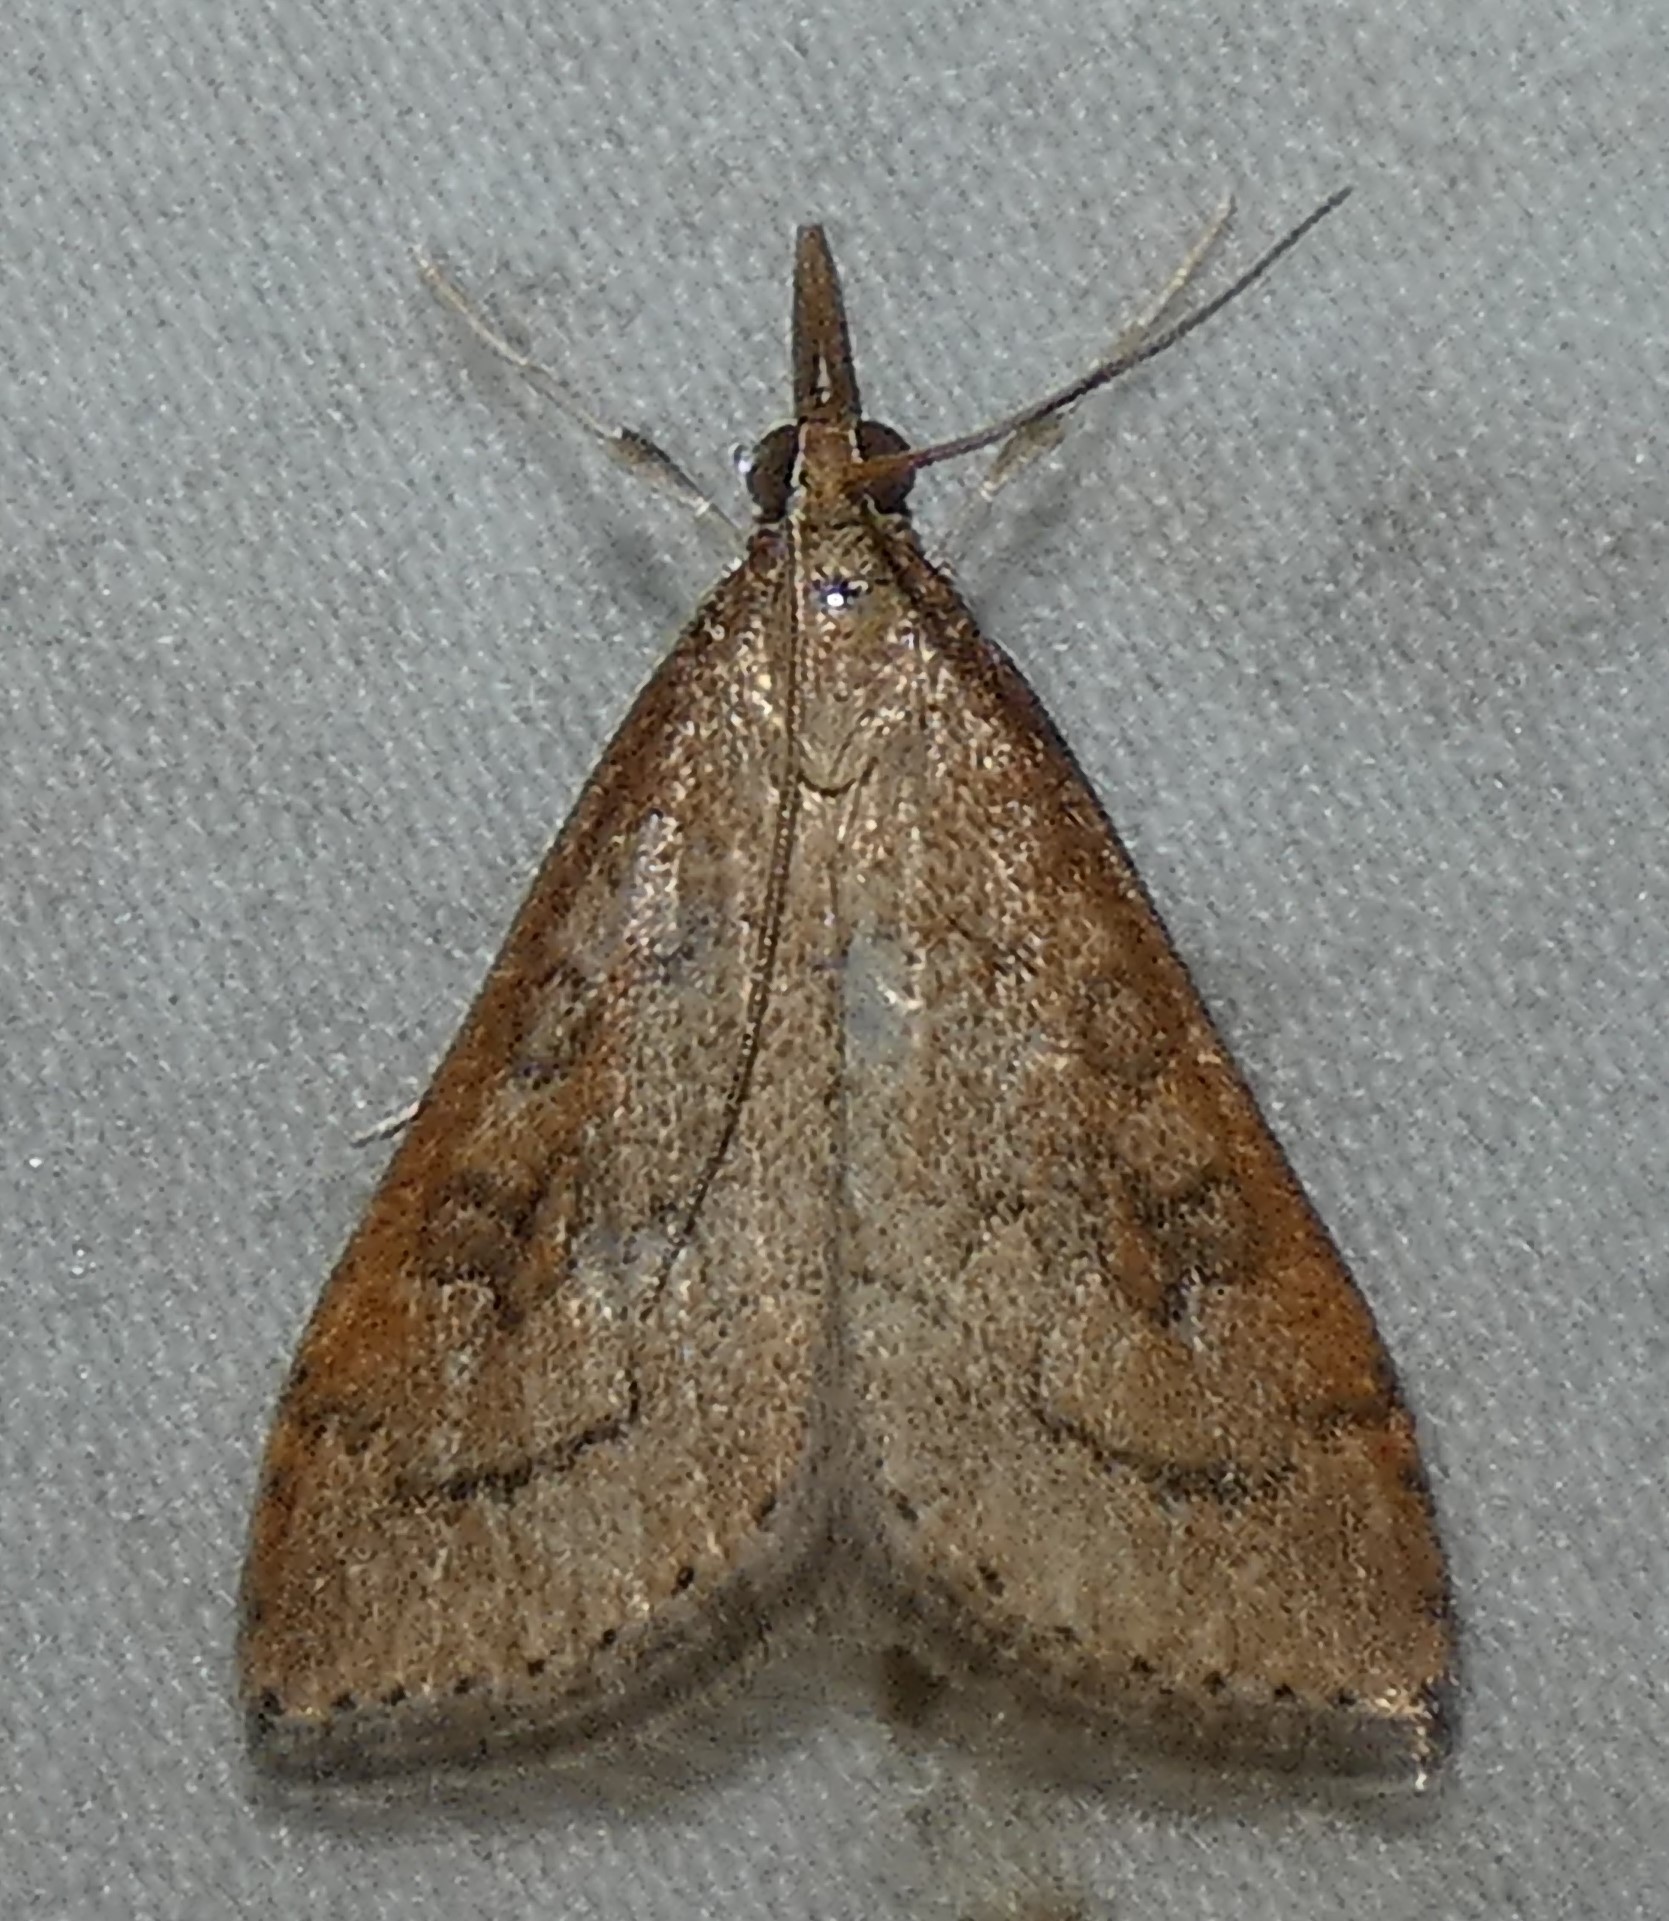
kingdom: Animalia
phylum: Arthropoda
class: Insecta
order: Lepidoptera
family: Crambidae
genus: Udea
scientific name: Udea rubigalis
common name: Celery leaftier moth
